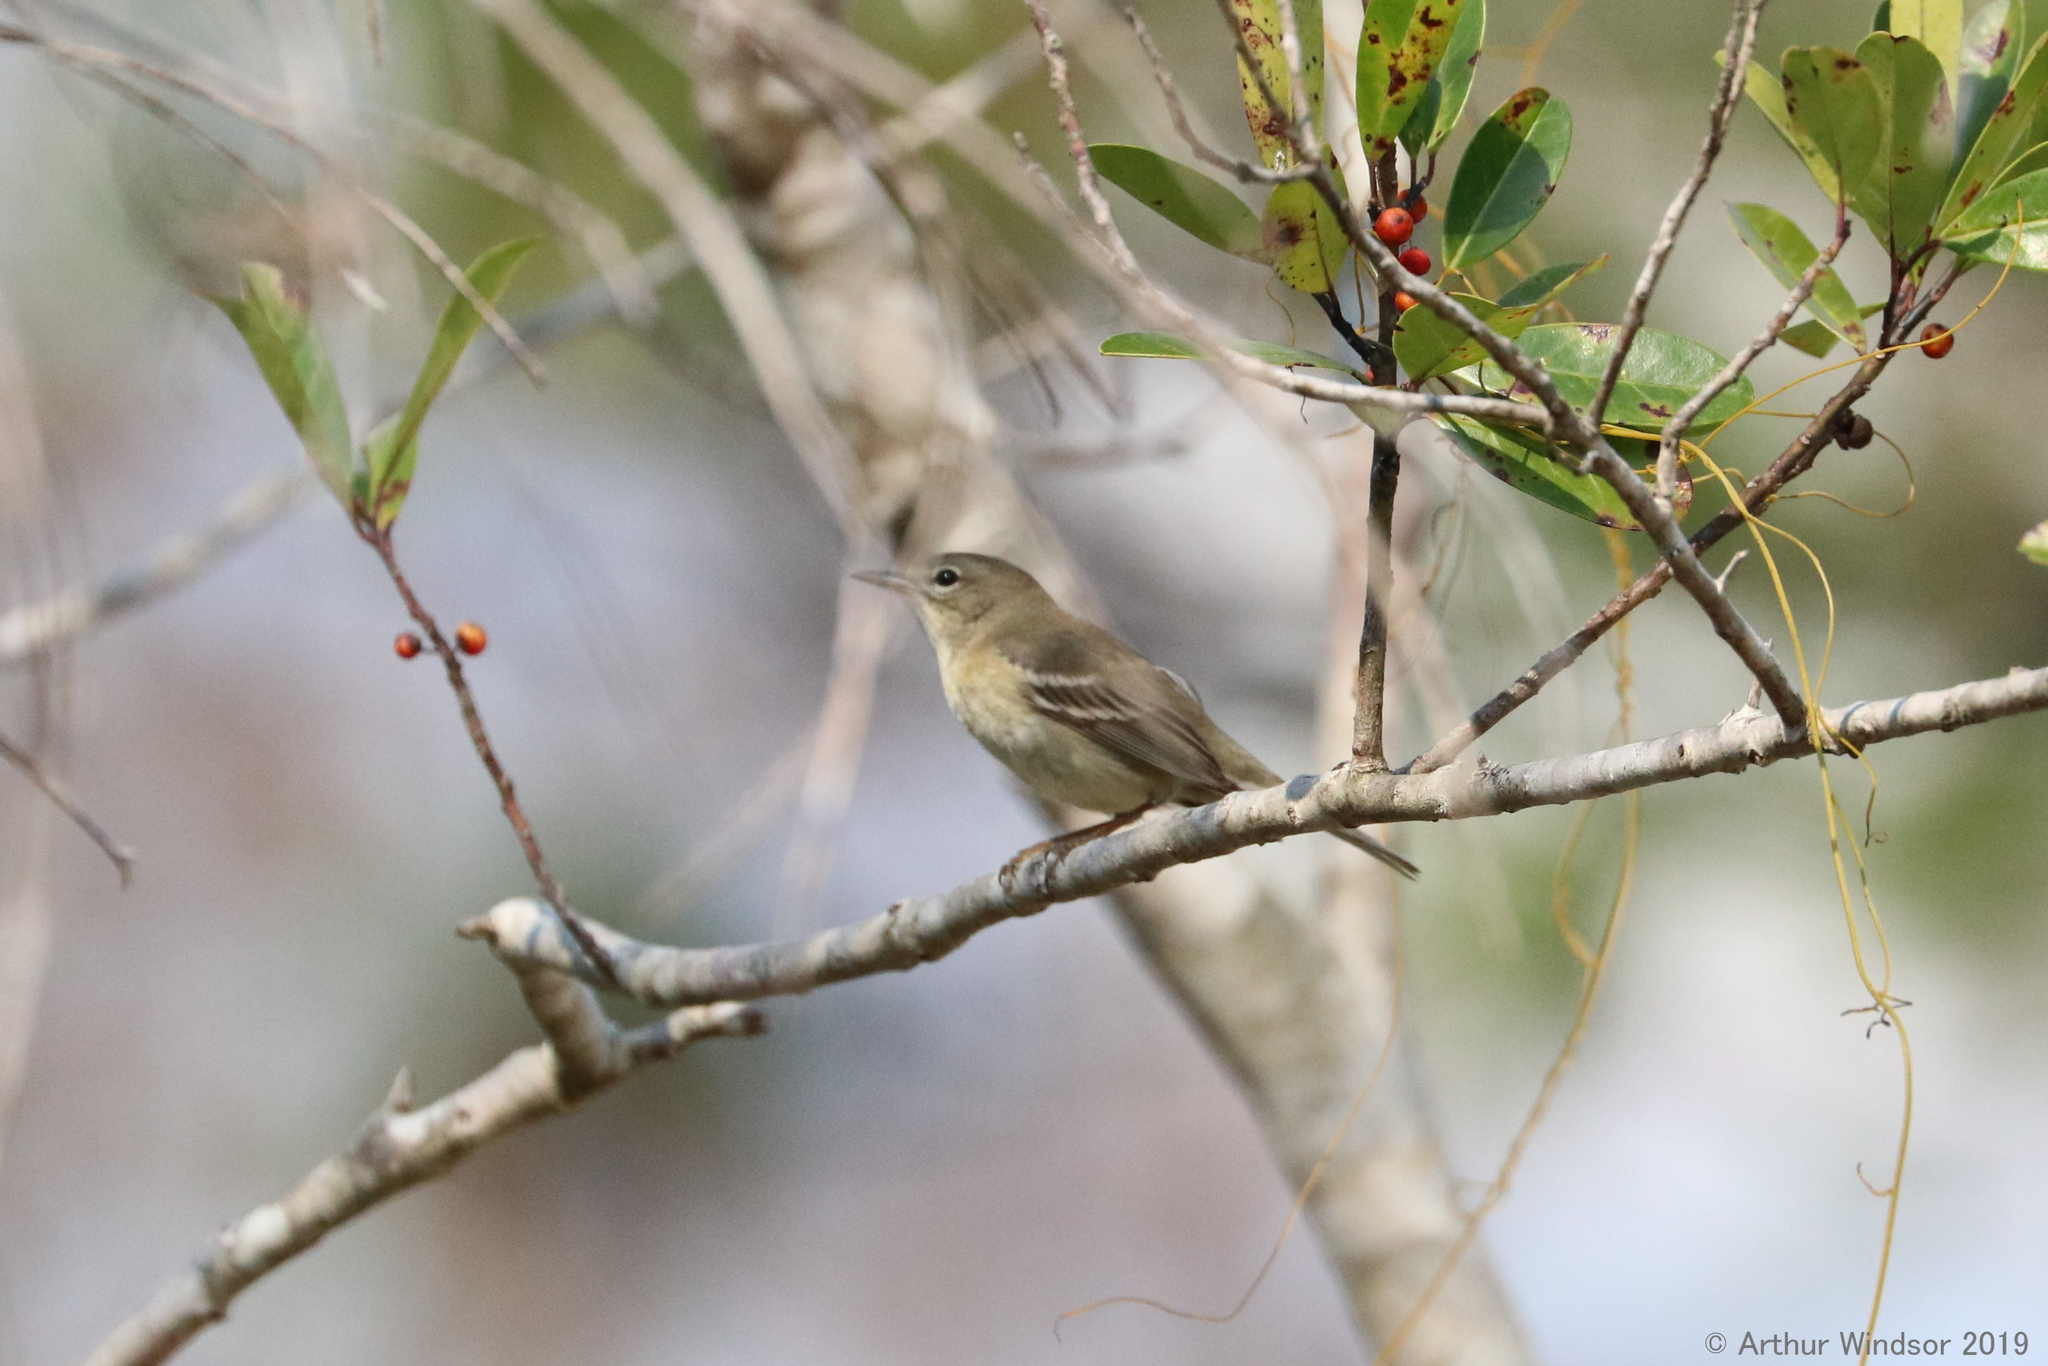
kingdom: Animalia
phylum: Chordata
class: Aves
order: Passeriformes
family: Parulidae
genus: Setophaga
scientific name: Setophaga pinus
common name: Pine warbler
